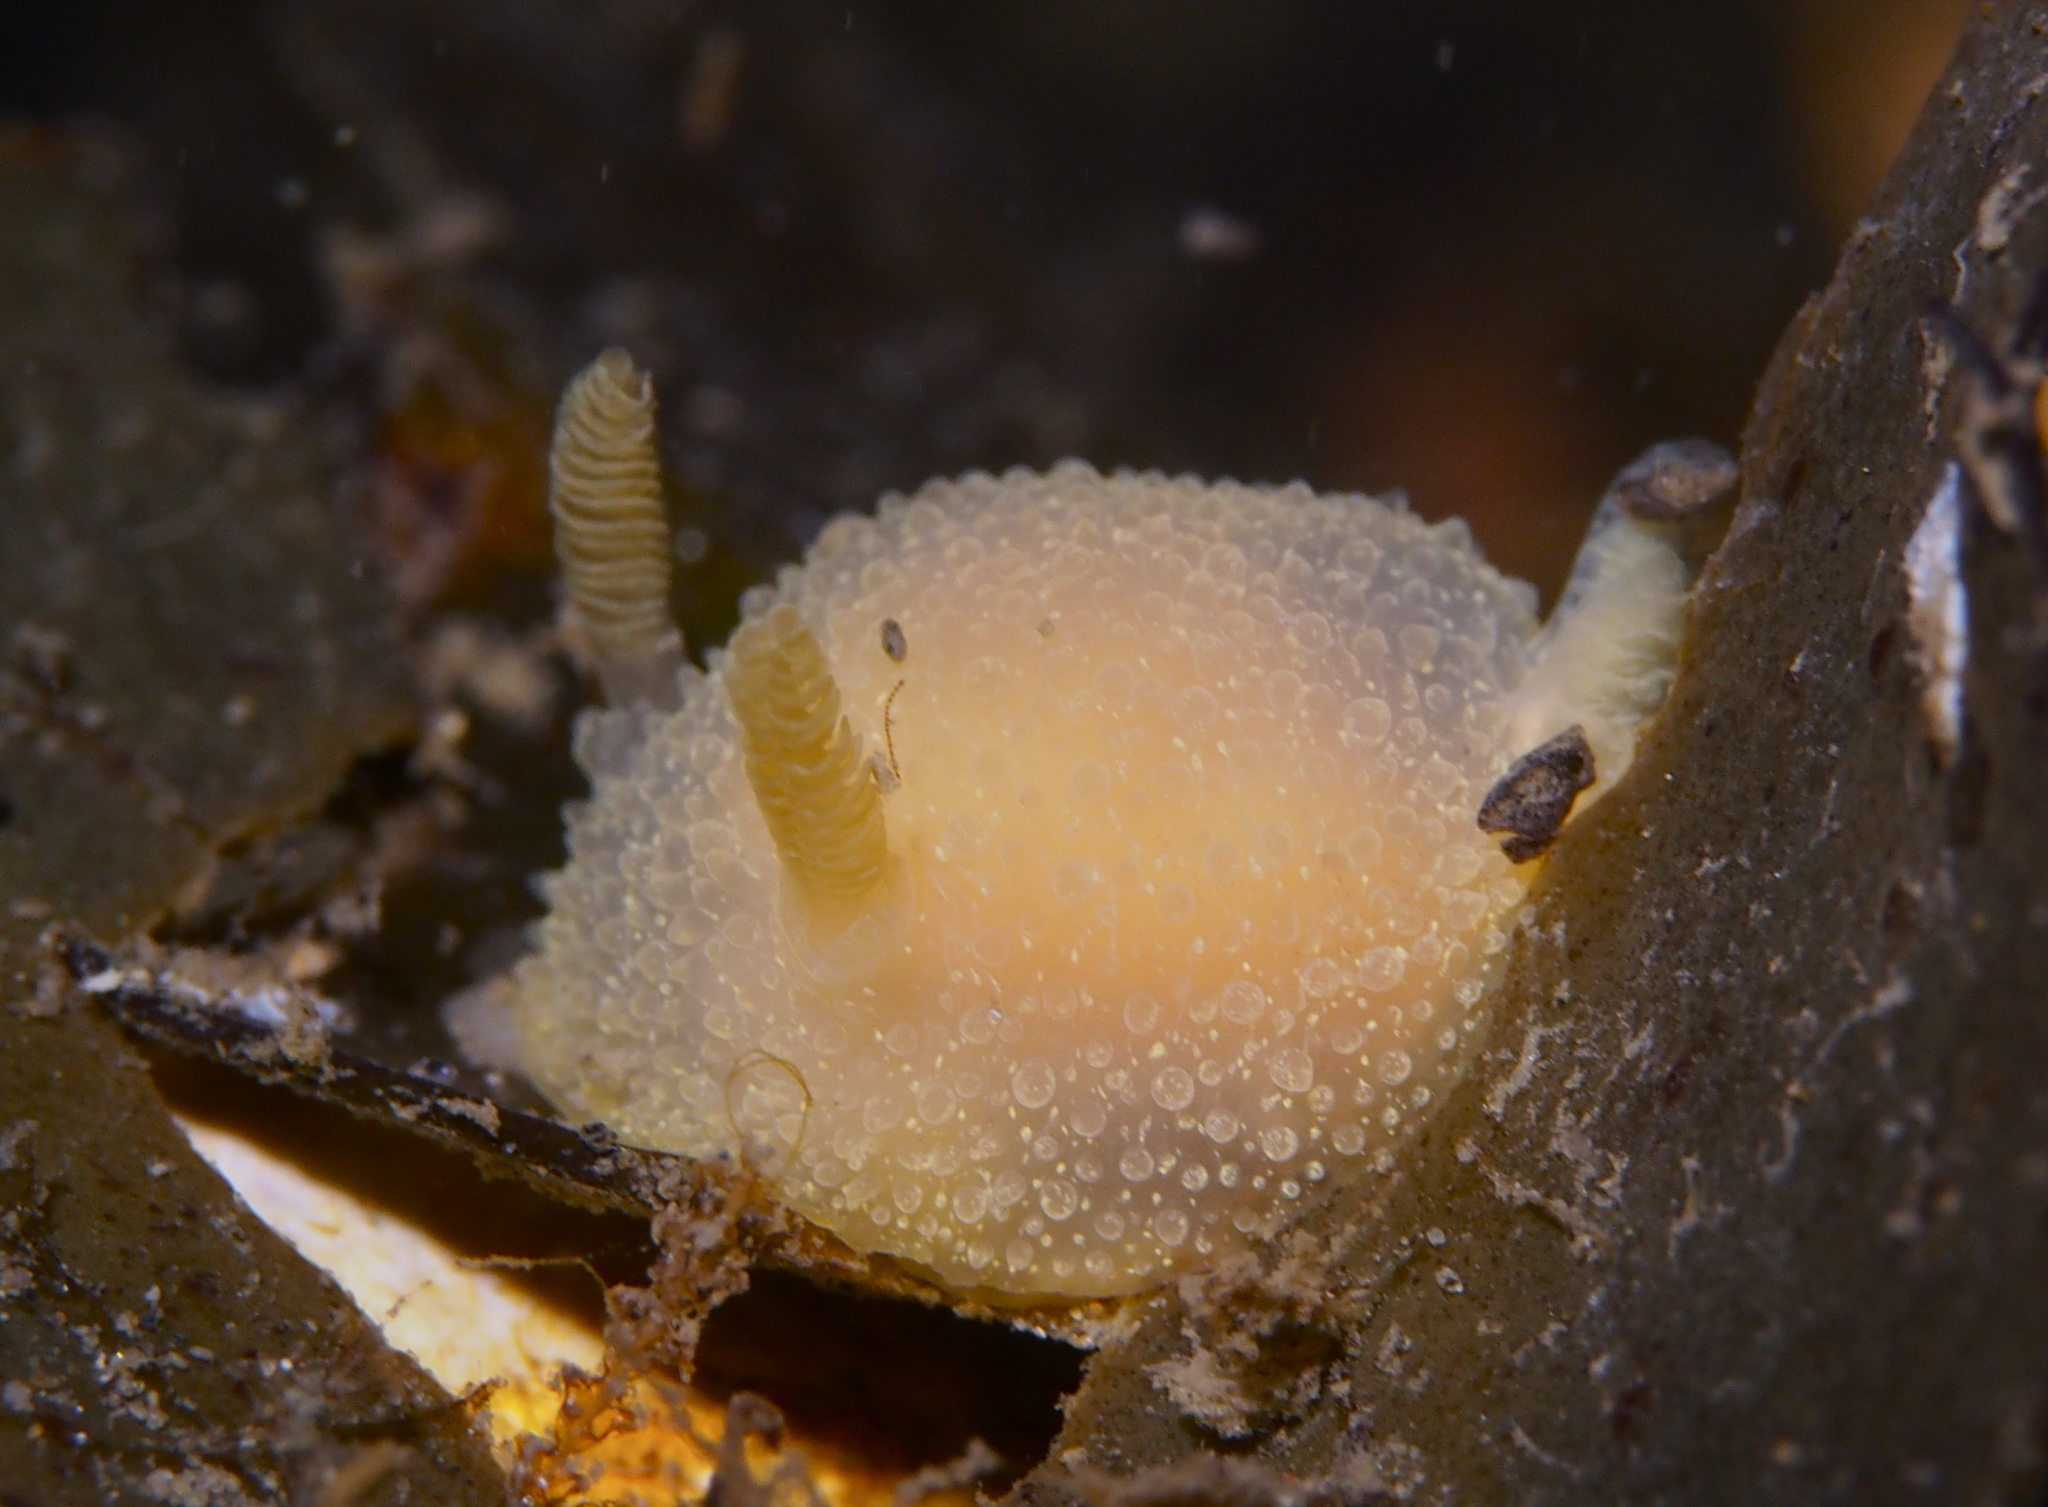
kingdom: Animalia
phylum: Mollusca
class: Gastropoda
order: Nudibranchia
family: Onchidorididae
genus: Acanthodoris
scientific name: Acanthodoris pilosa
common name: Hairy spiny doris
